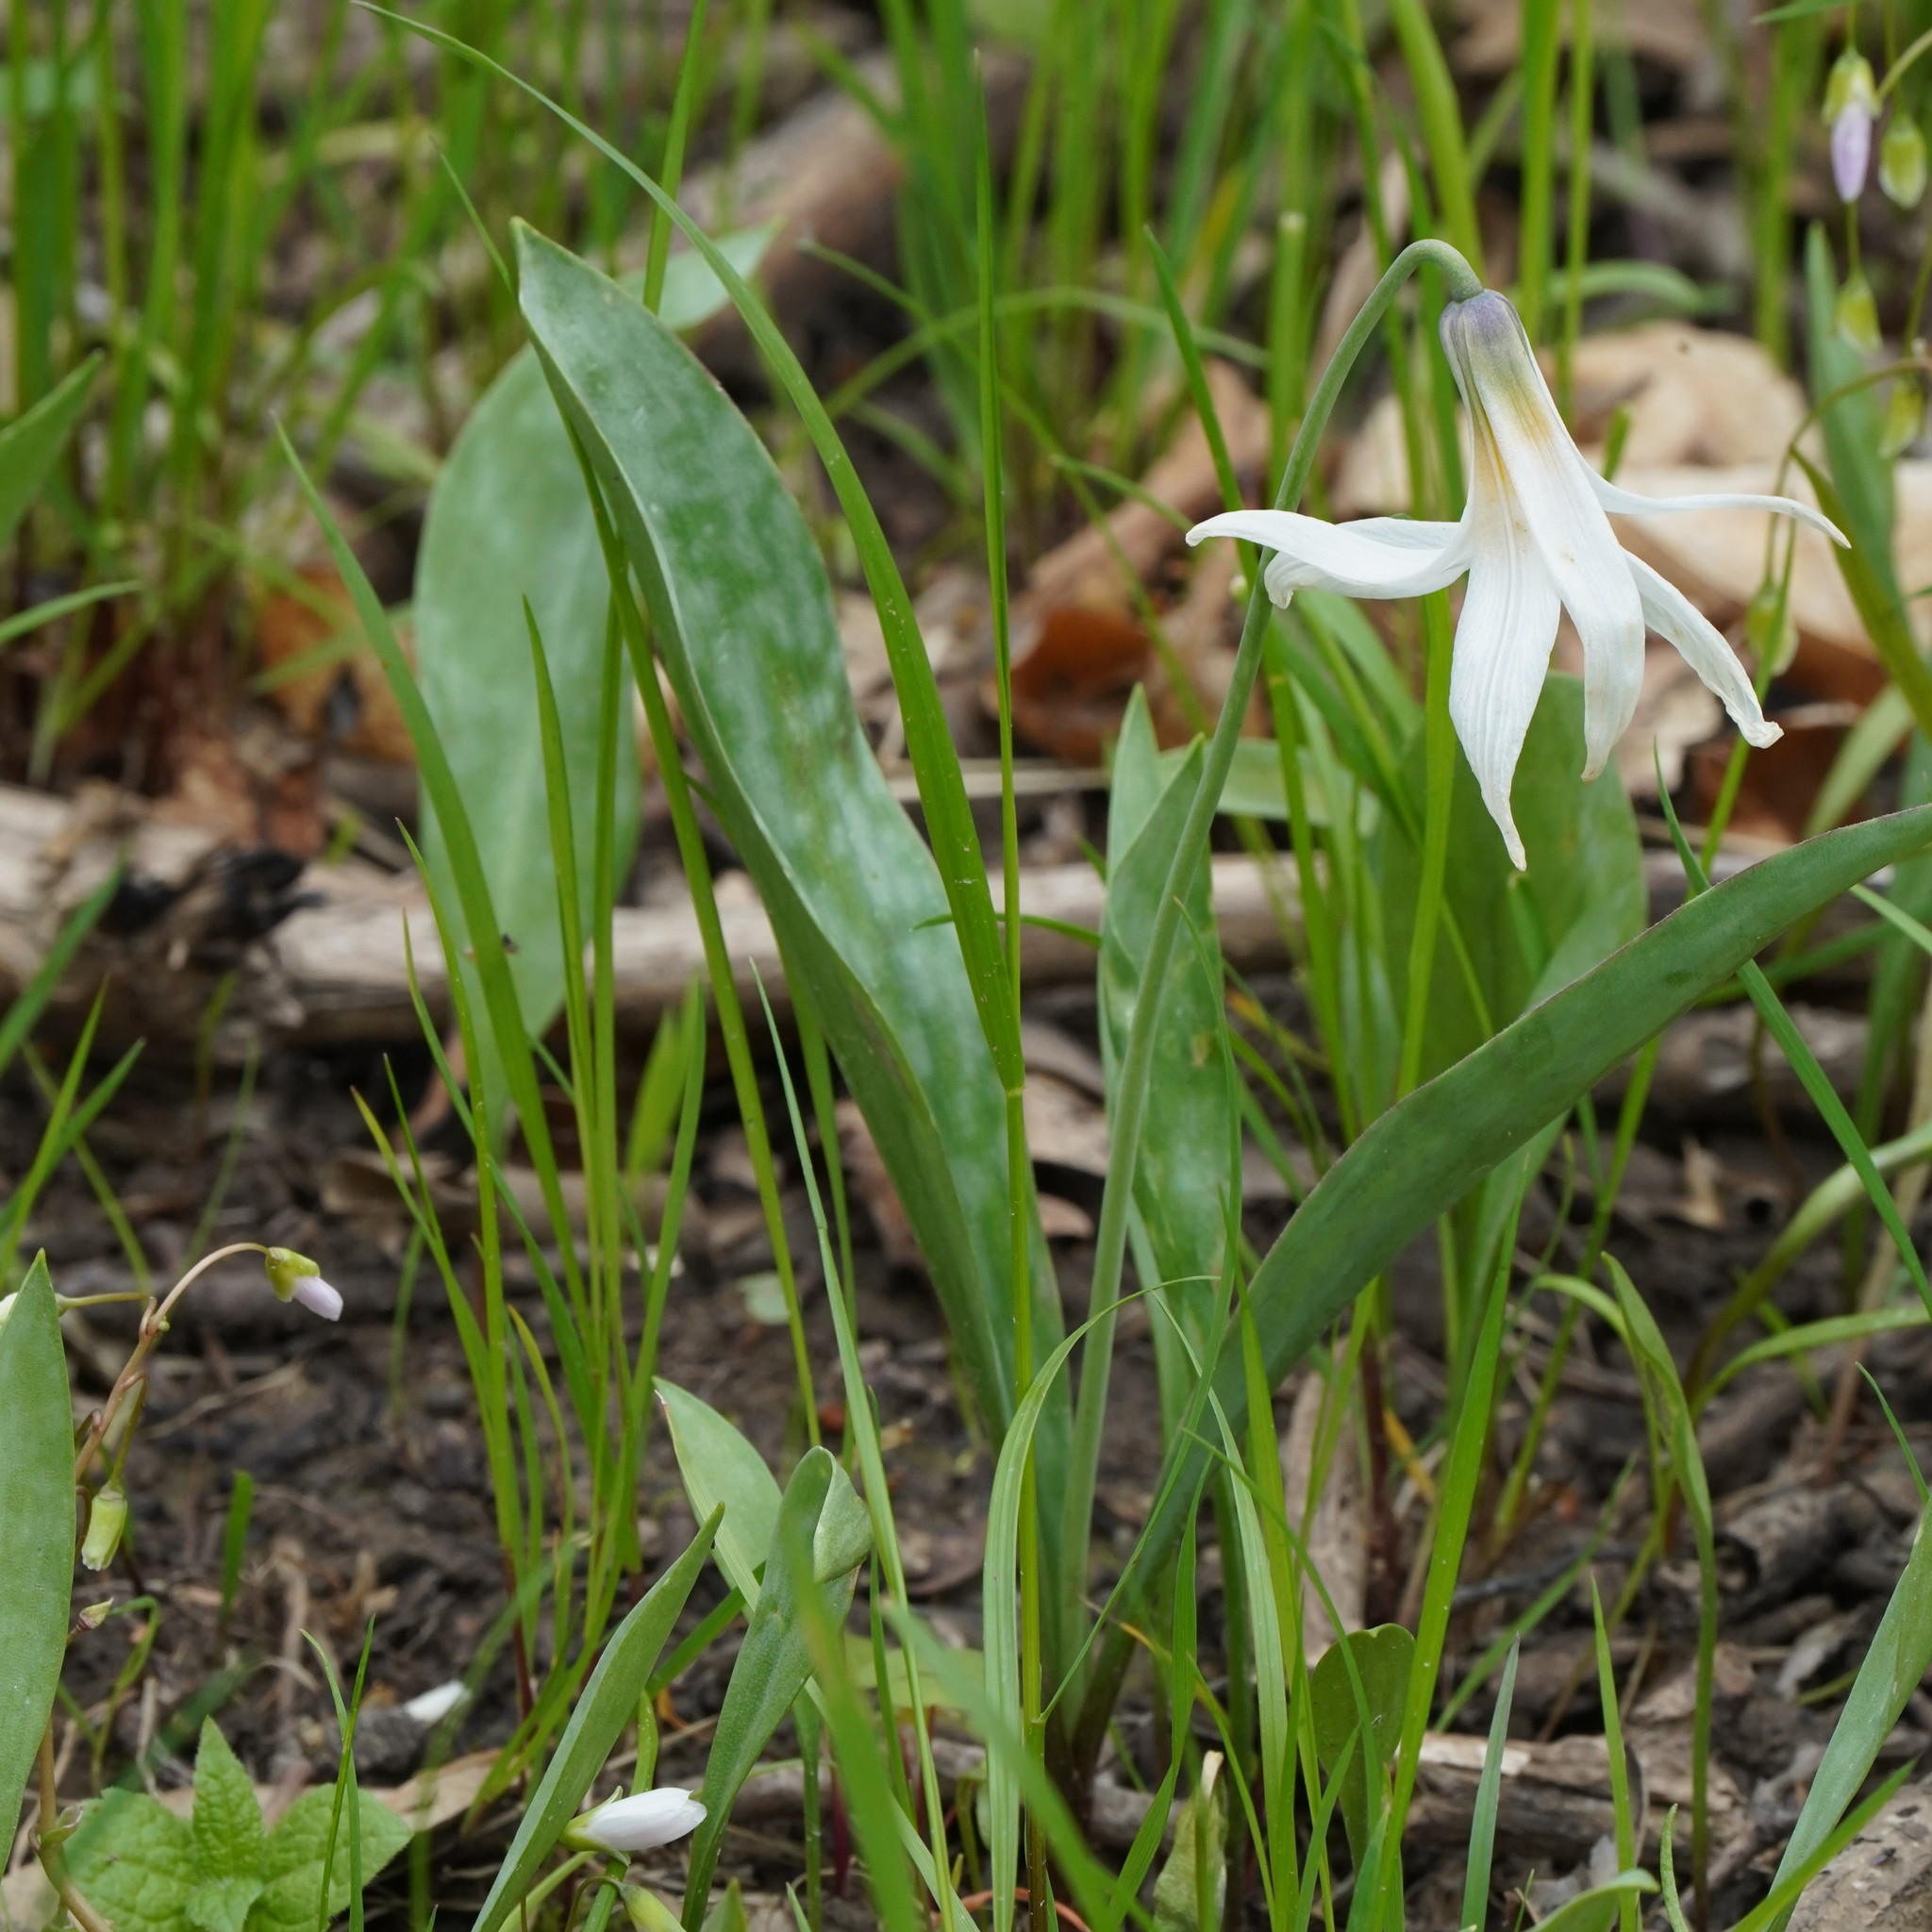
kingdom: Plantae
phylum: Tracheophyta
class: Liliopsida
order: Liliales
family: Liliaceae
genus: Erythronium
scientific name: Erythronium albidum
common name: White trout-lily
